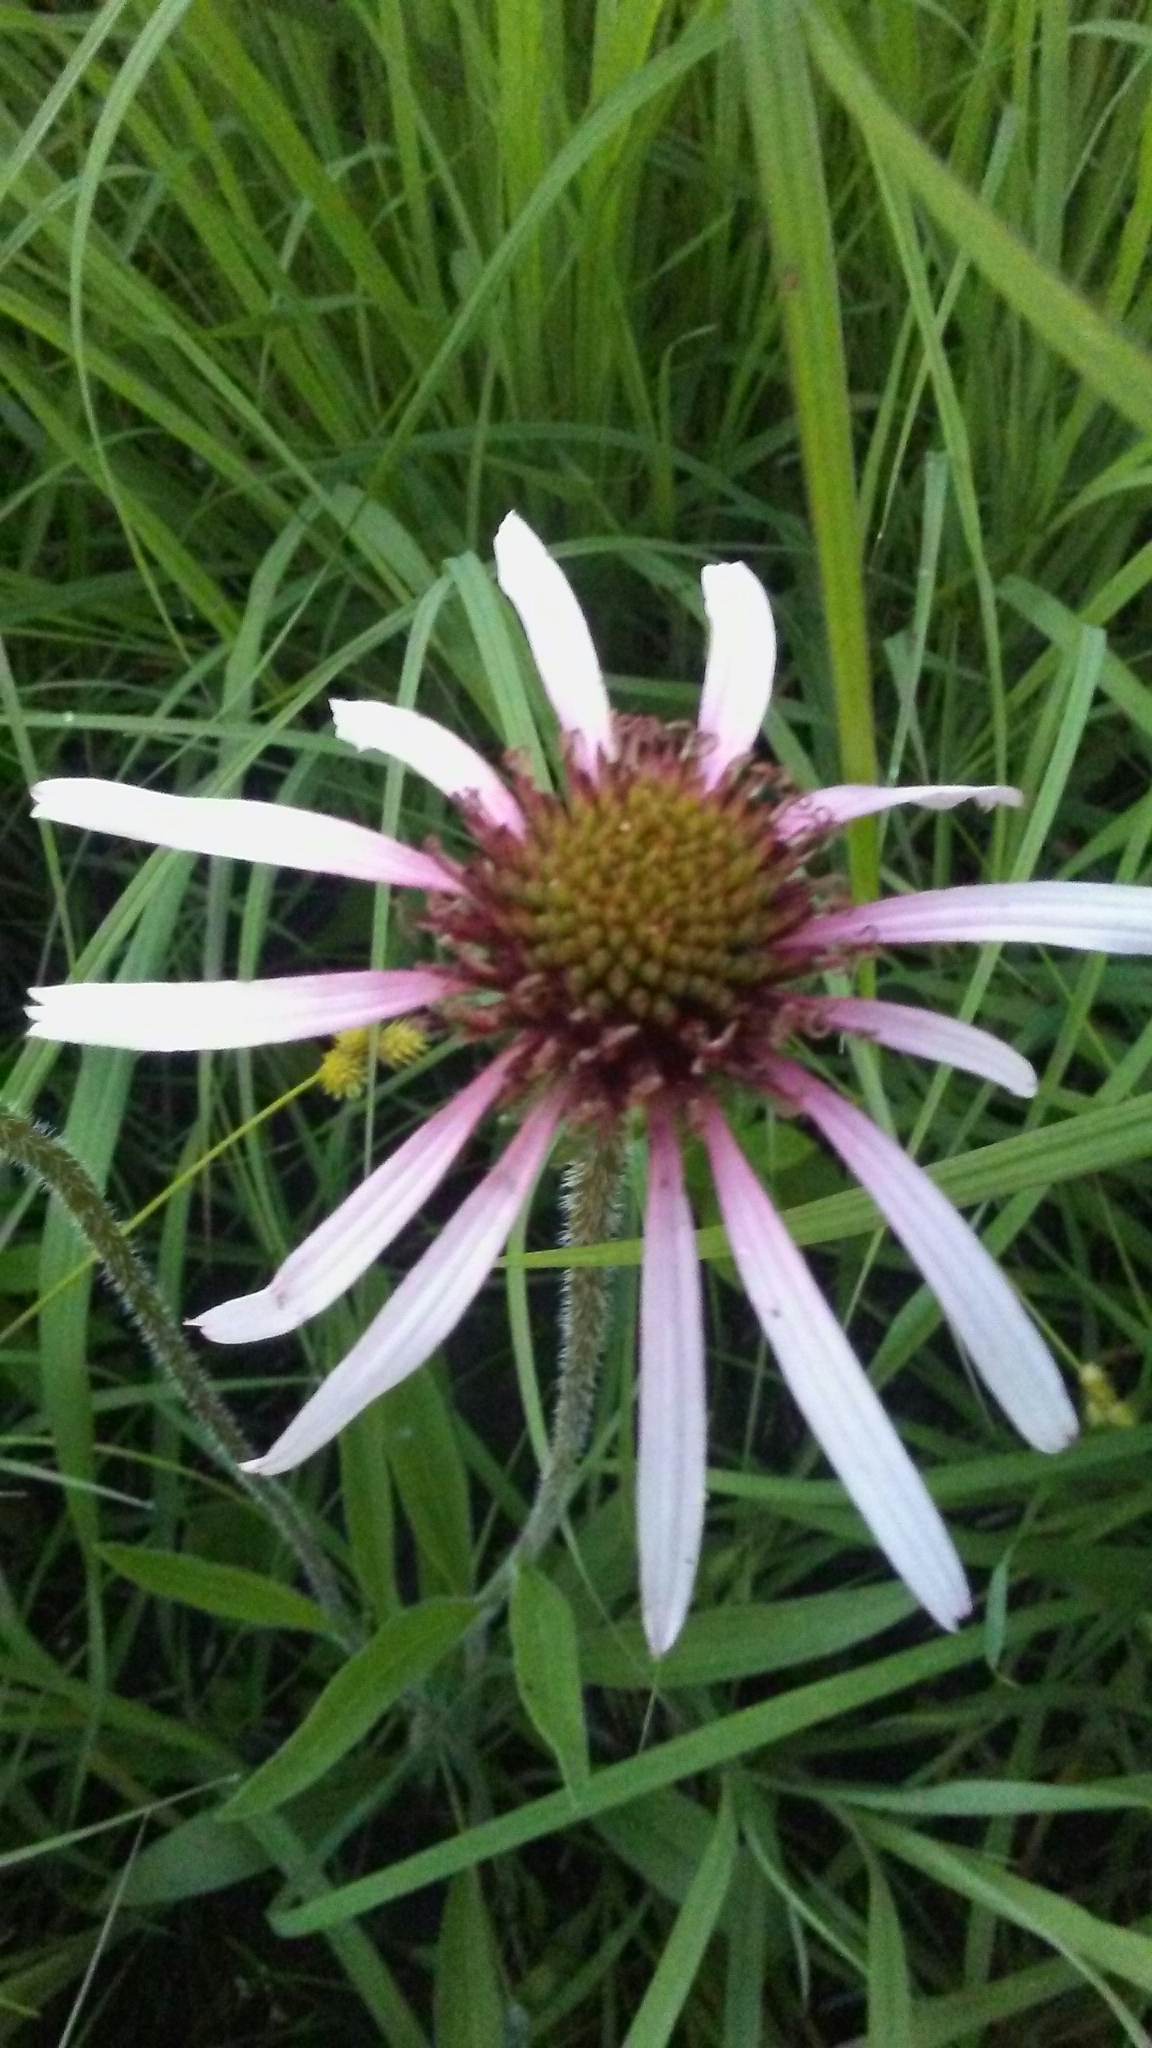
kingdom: Plantae
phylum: Tracheophyta
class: Magnoliopsida
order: Asterales
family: Asteraceae
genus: Echinacea
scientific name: Echinacea pallida
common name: Pale echinacea
